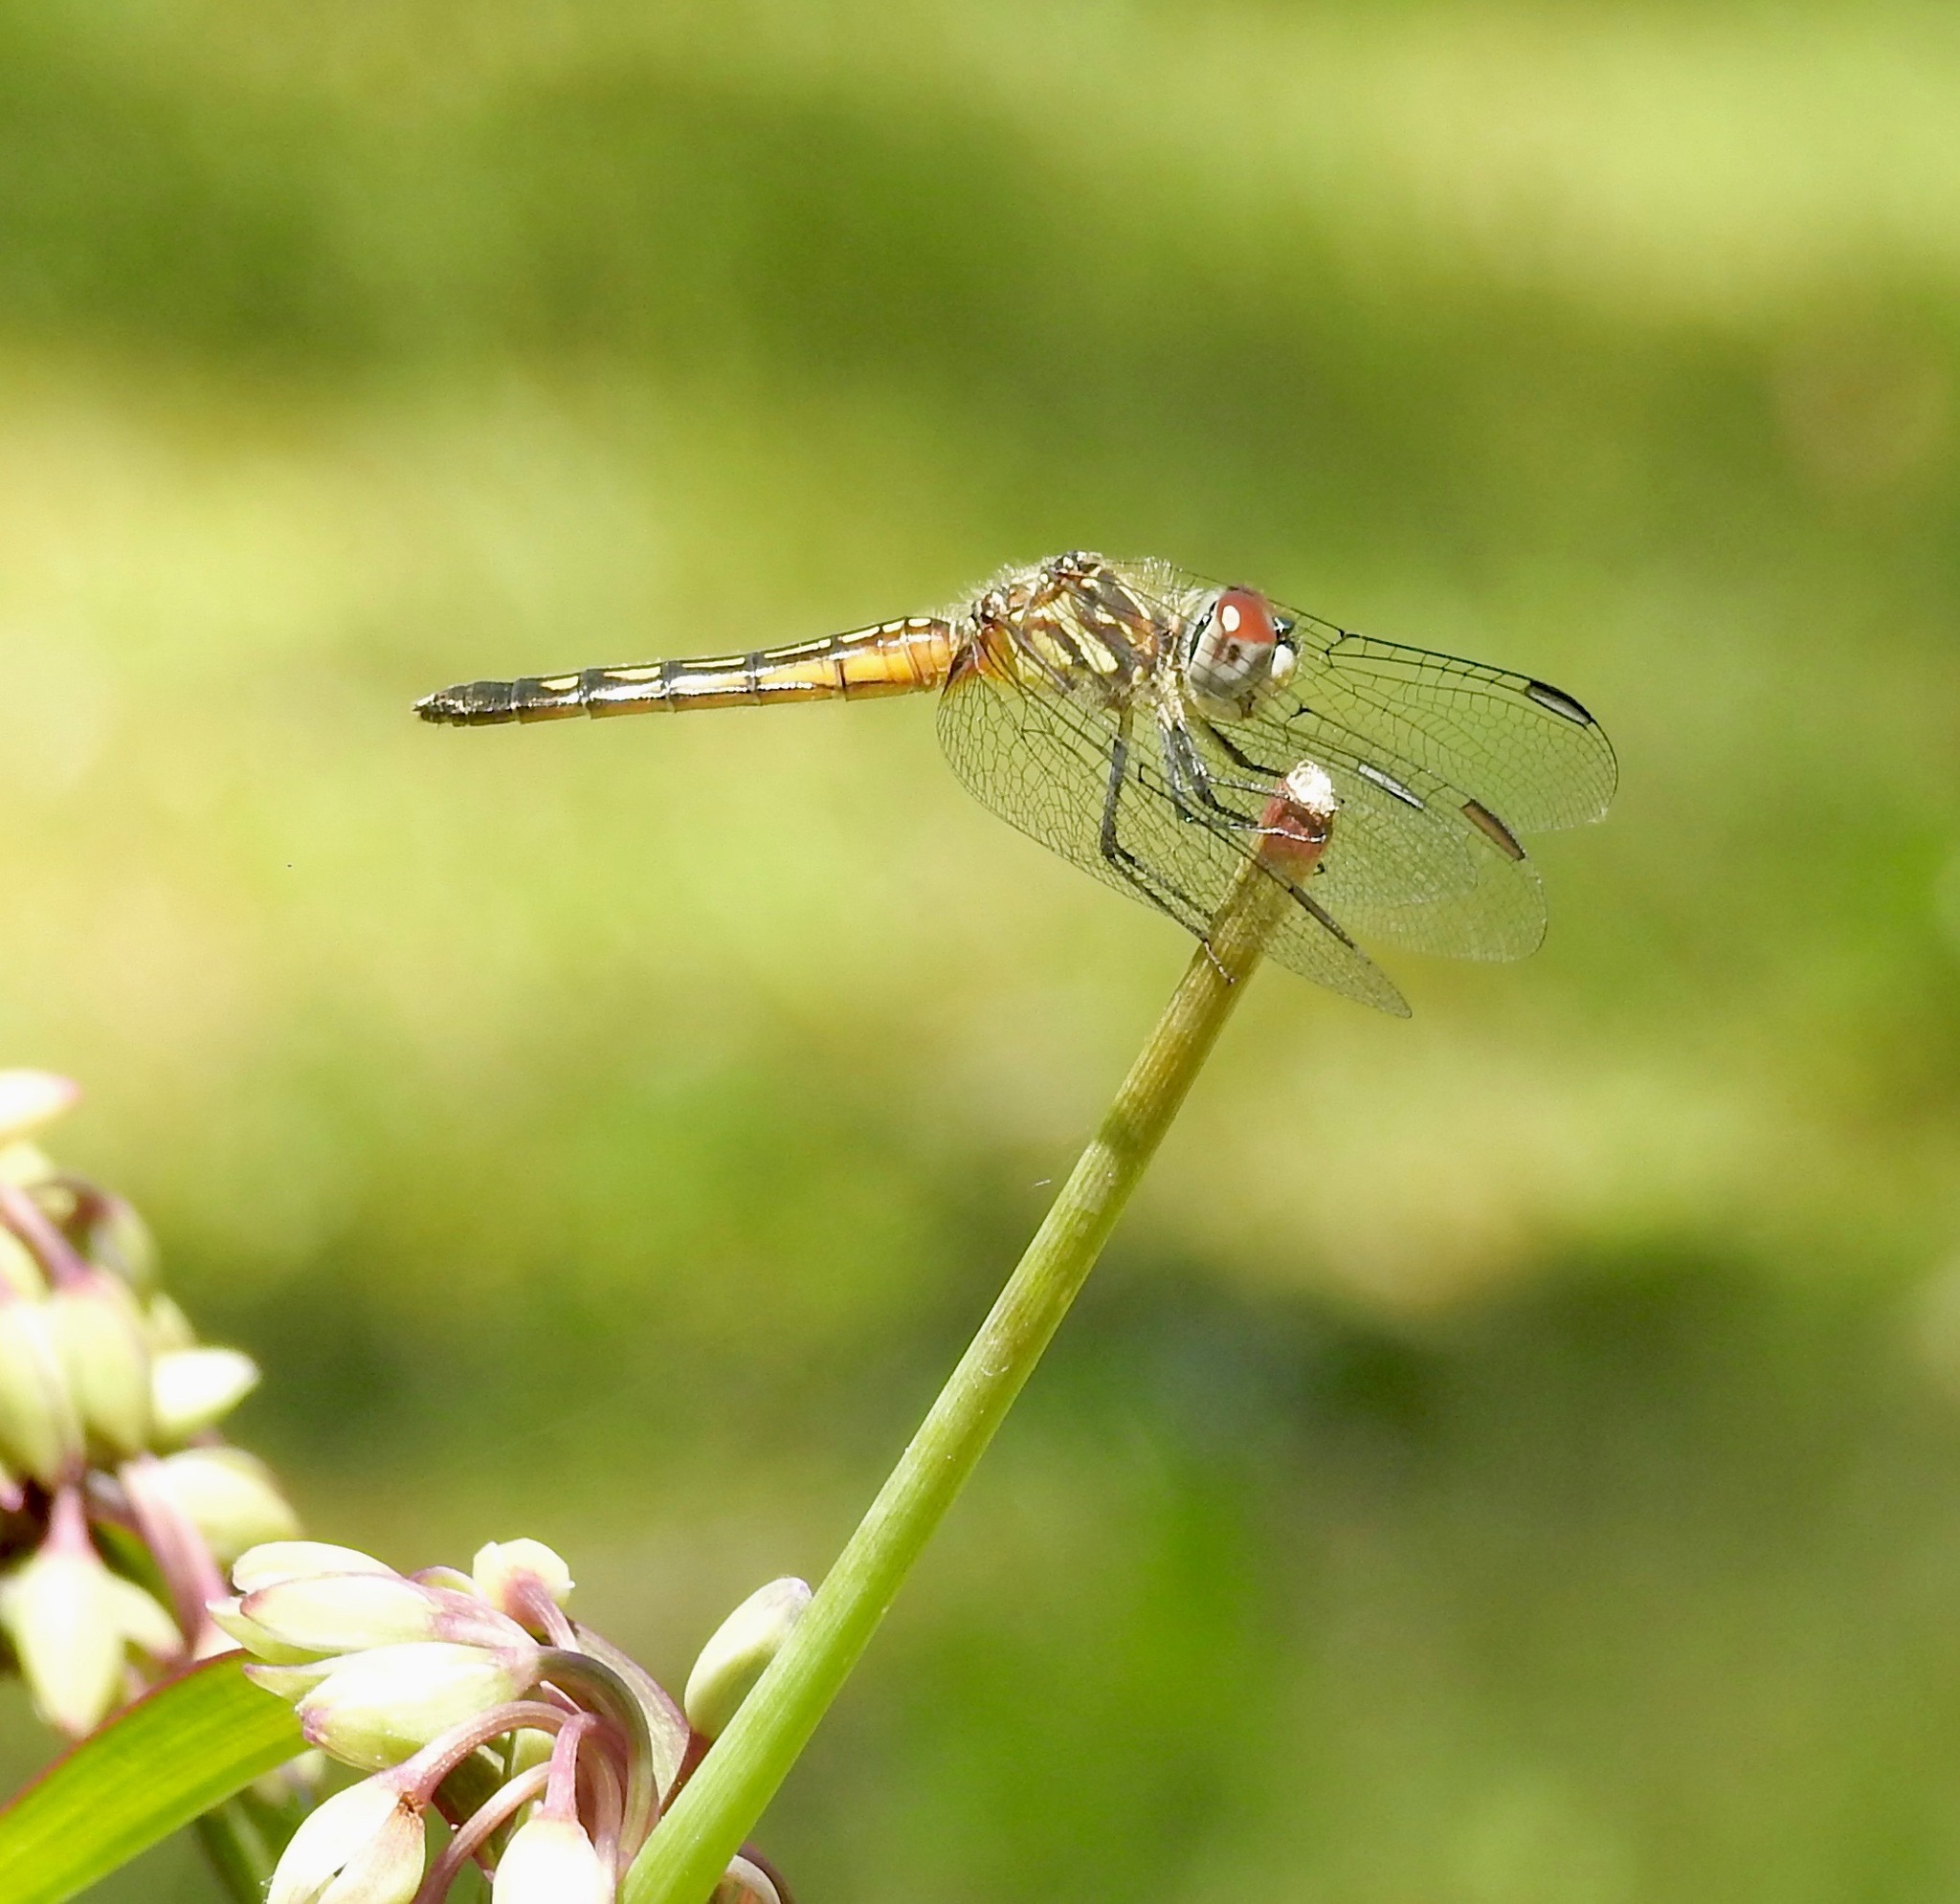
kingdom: Animalia
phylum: Arthropoda
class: Insecta
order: Odonata
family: Libellulidae
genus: Pachydiplax
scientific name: Pachydiplax longipennis
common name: Blue dasher
